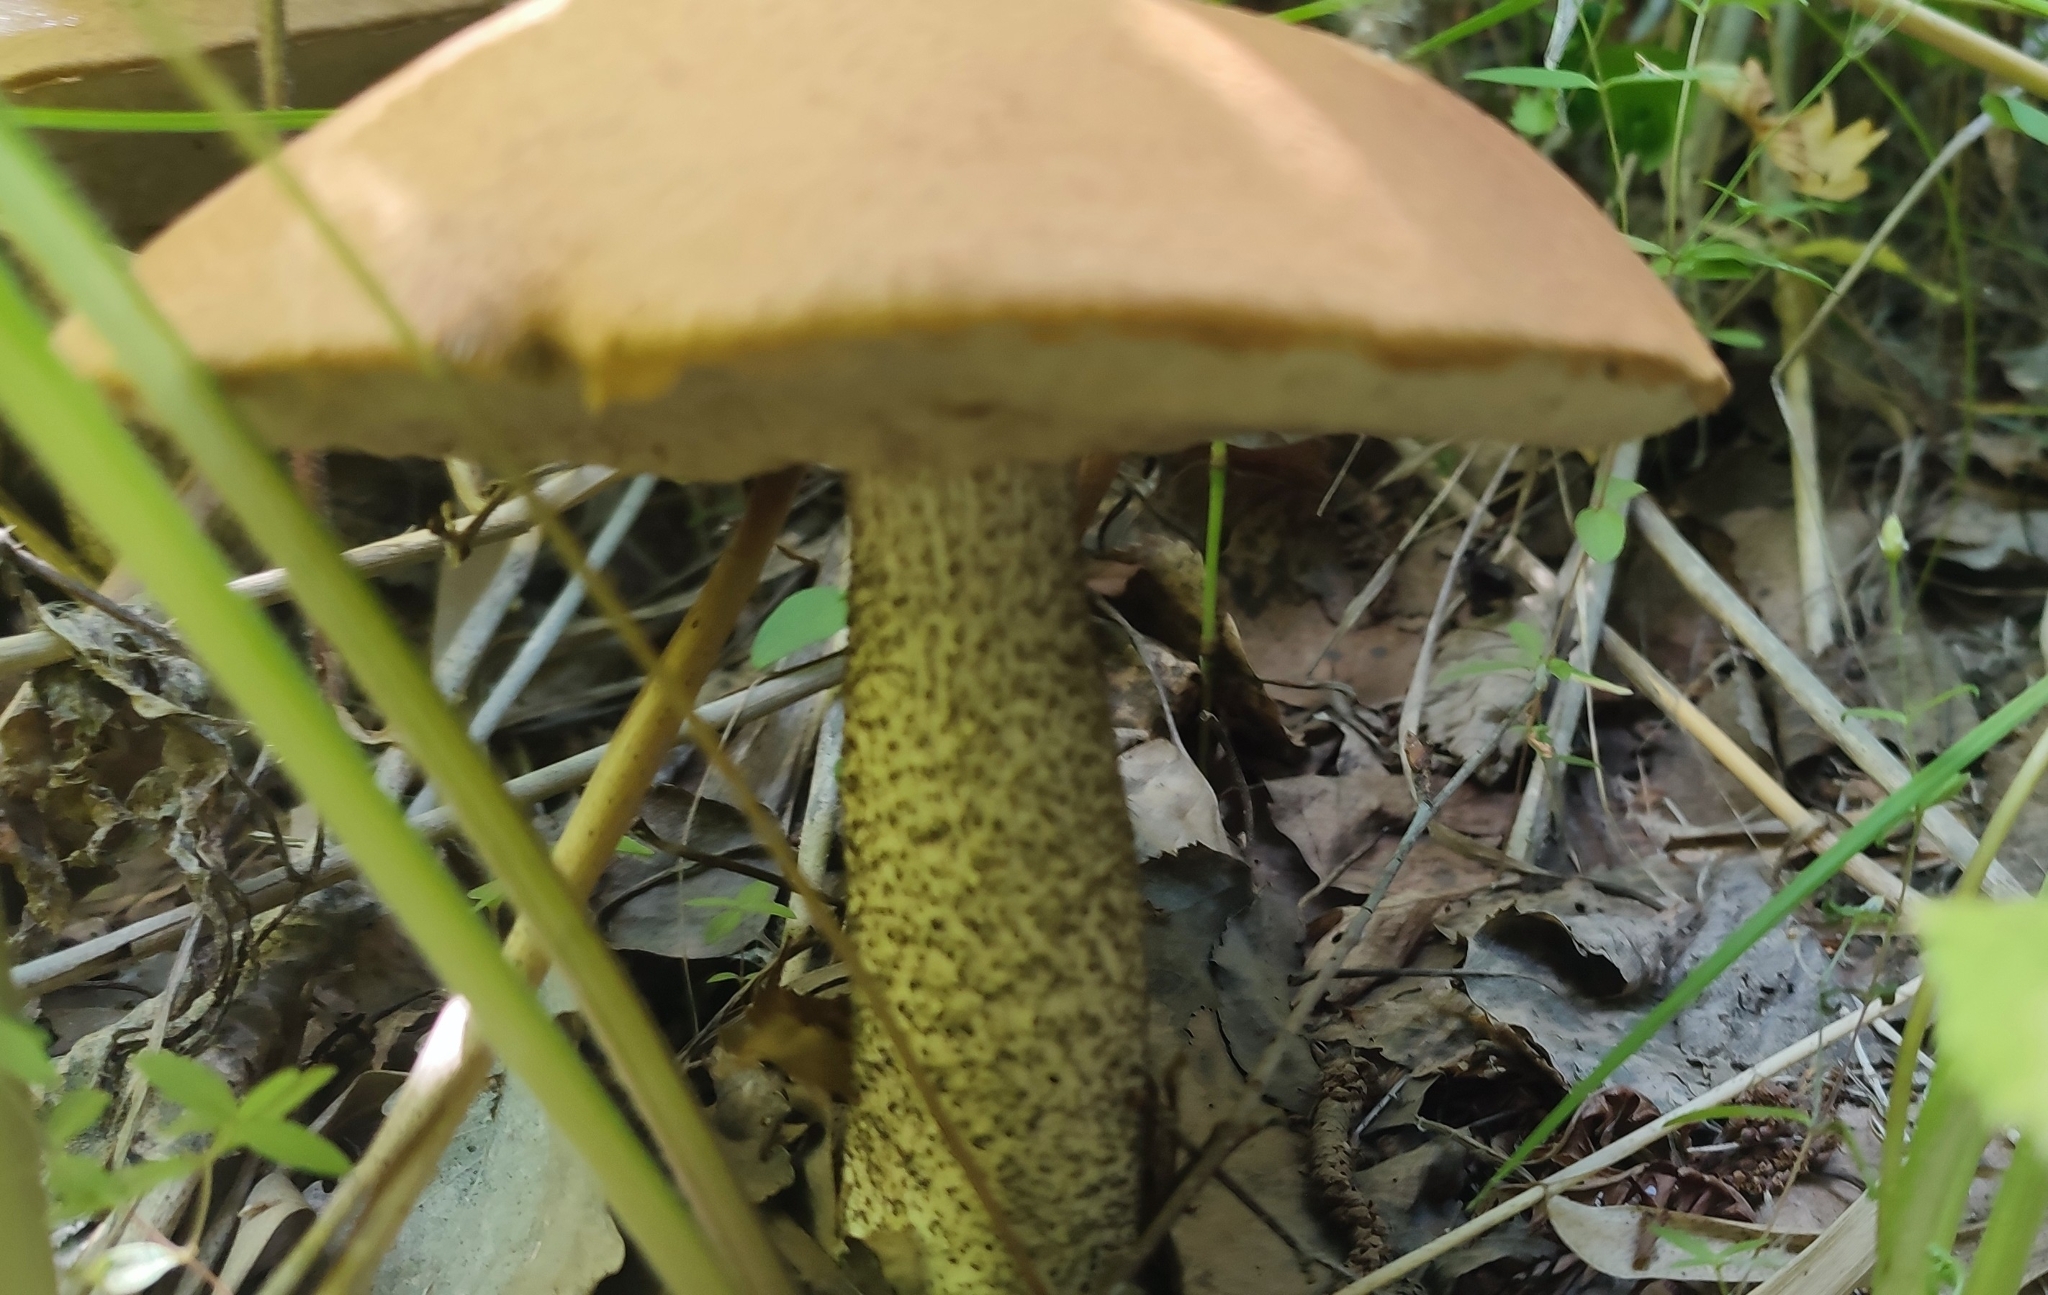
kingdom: Fungi
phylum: Basidiomycota
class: Agaricomycetes
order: Boletales
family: Boletaceae
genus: Leccinum
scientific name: Leccinum scabrum
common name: Blushing bolete
